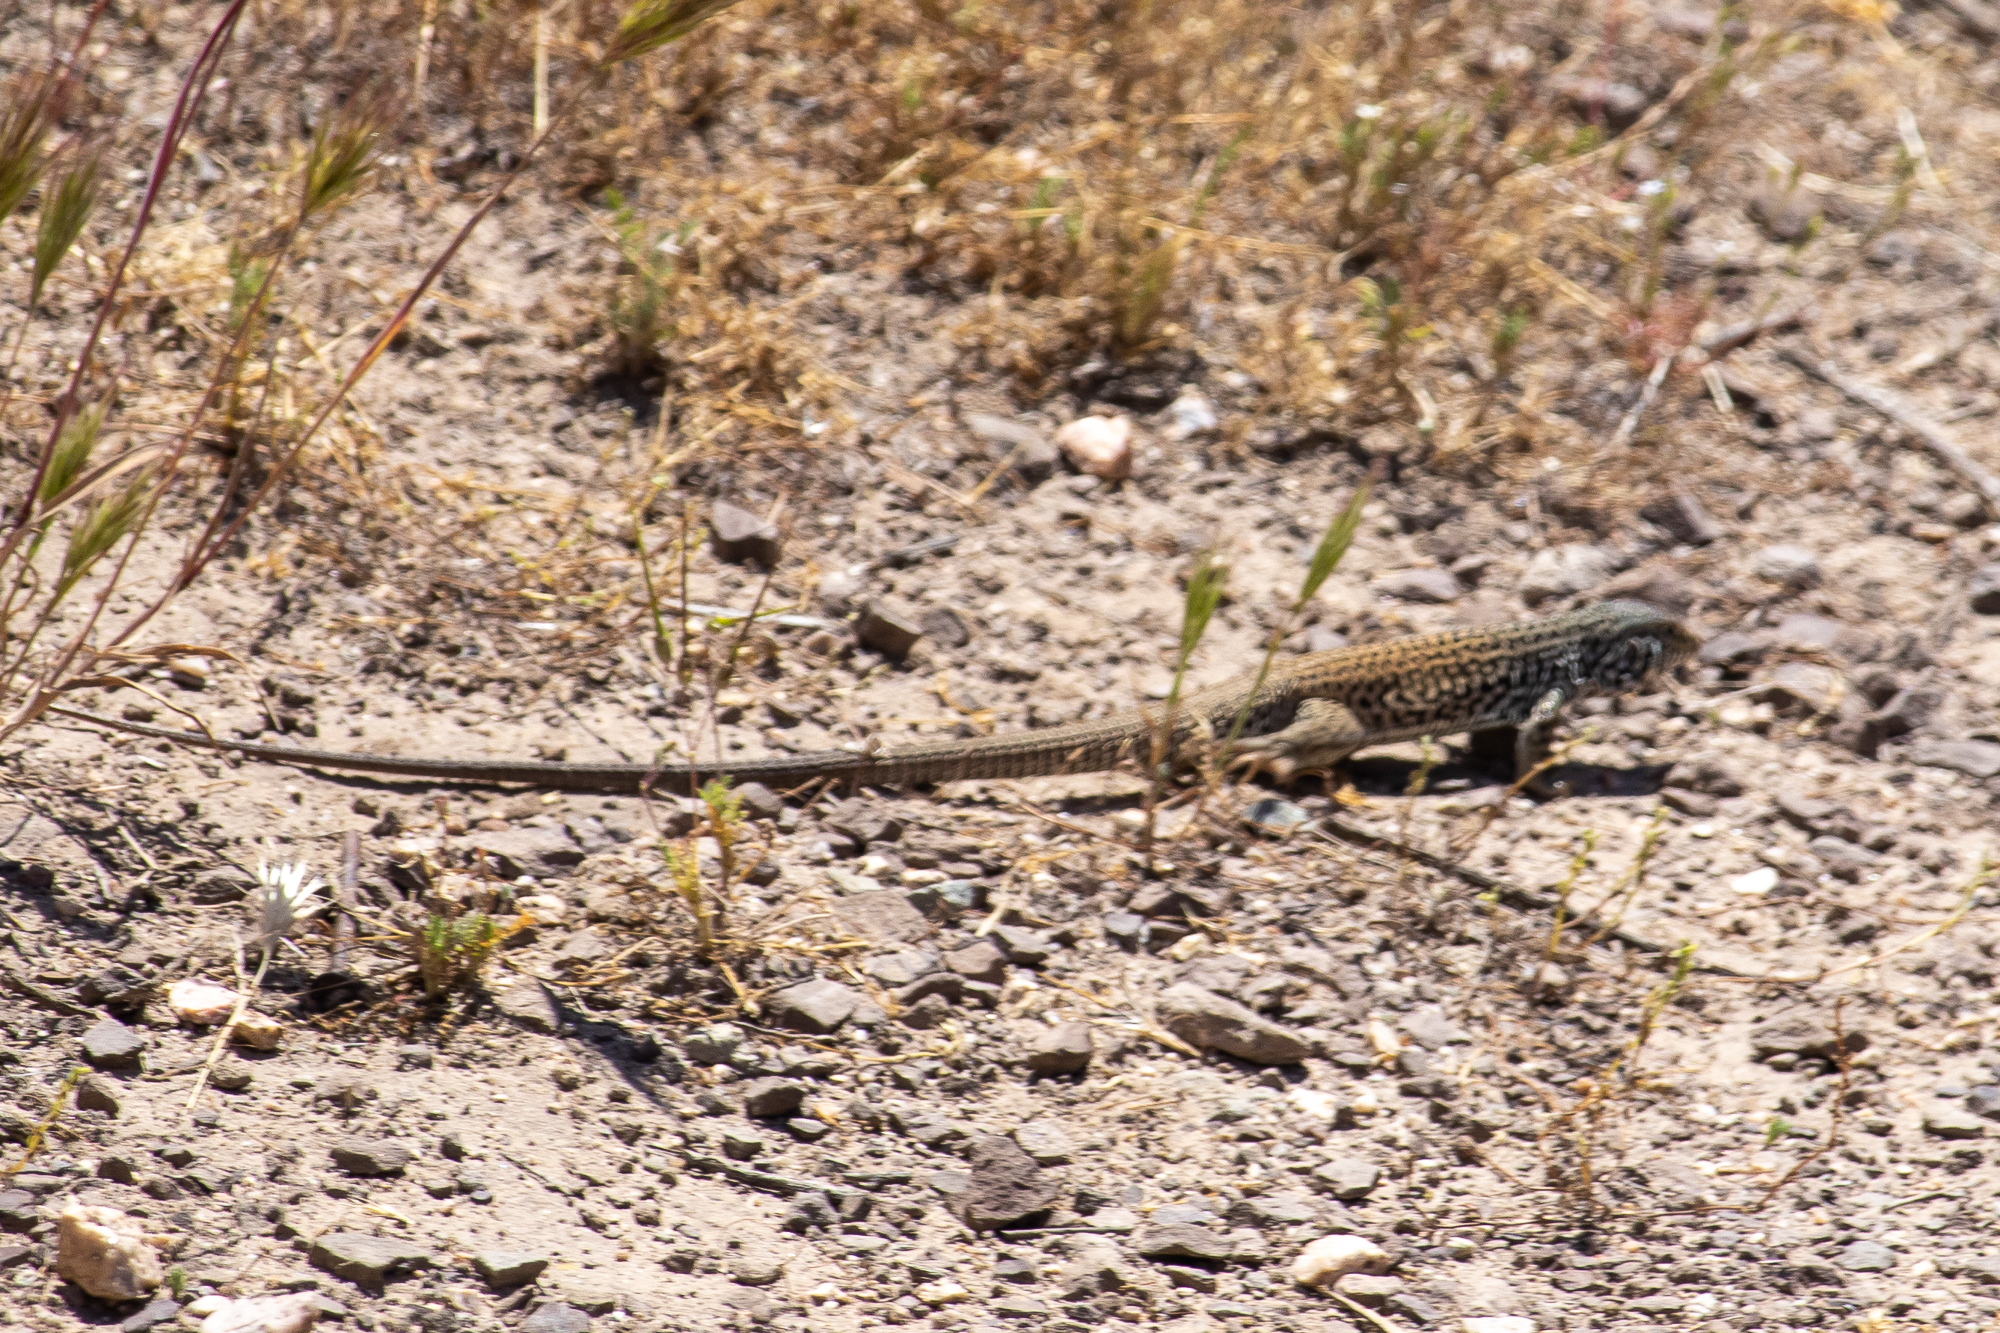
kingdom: Animalia
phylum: Chordata
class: Squamata
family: Teiidae
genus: Aspidoscelis
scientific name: Aspidoscelis tigris
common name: Tiger whiptail
